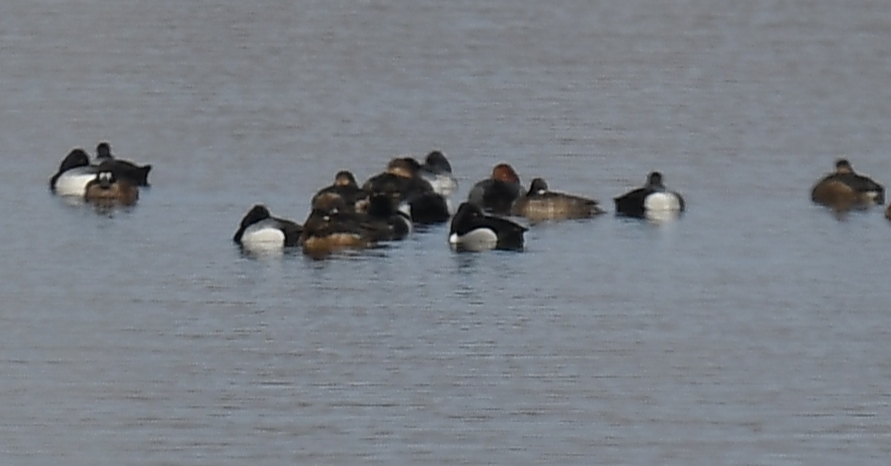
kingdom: Animalia
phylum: Chordata
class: Aves
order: Anseriformes
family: Anatidae
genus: Aythya
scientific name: Aythya americana
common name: Redhead
